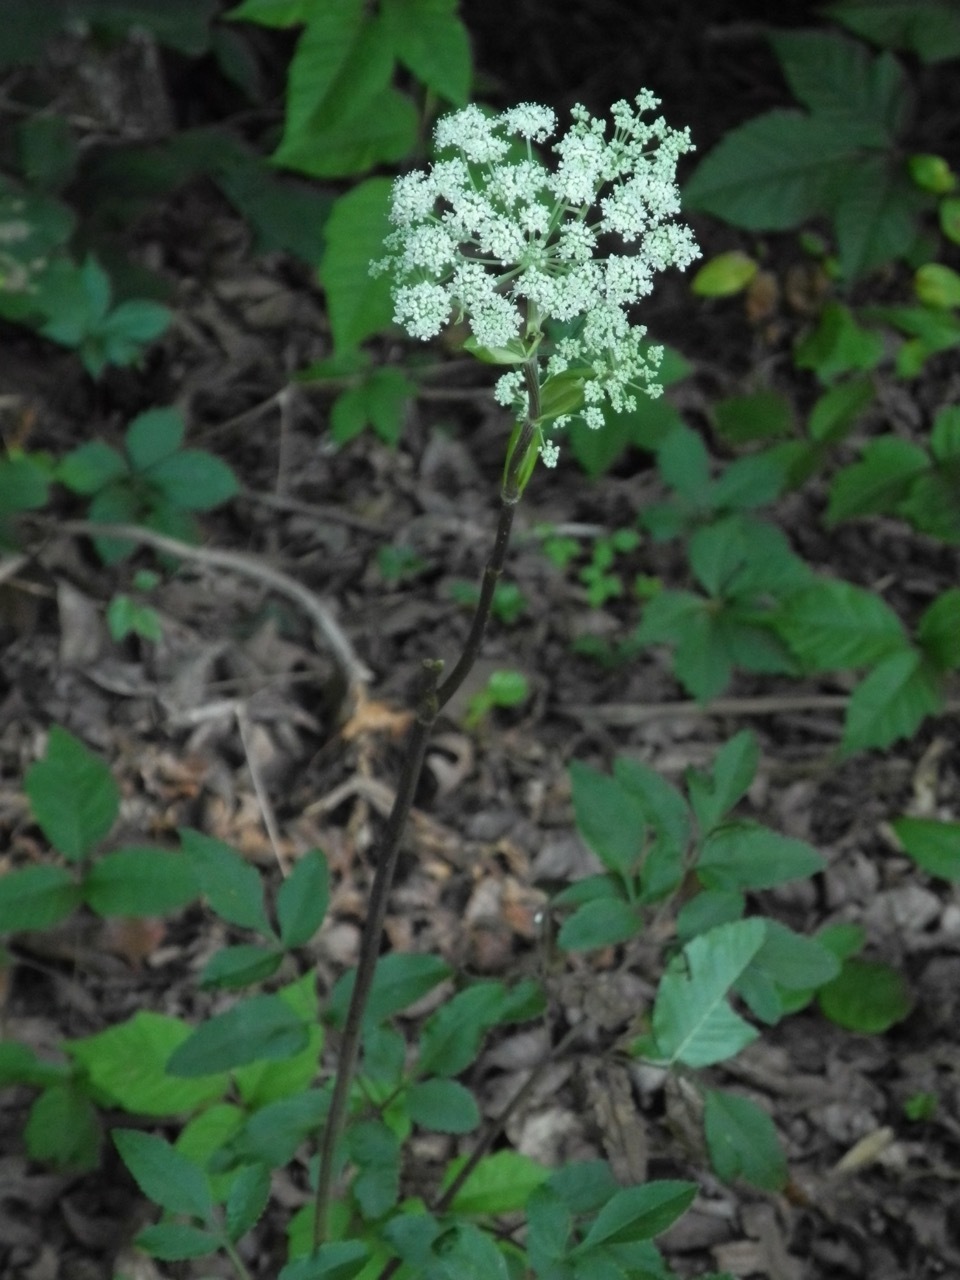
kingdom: Plantae
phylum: Tracheophyta
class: Magnoliopsida
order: Apiales
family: Apiaceae
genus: Cicuta
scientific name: Cicuta maculata
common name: Spotted cowbane
